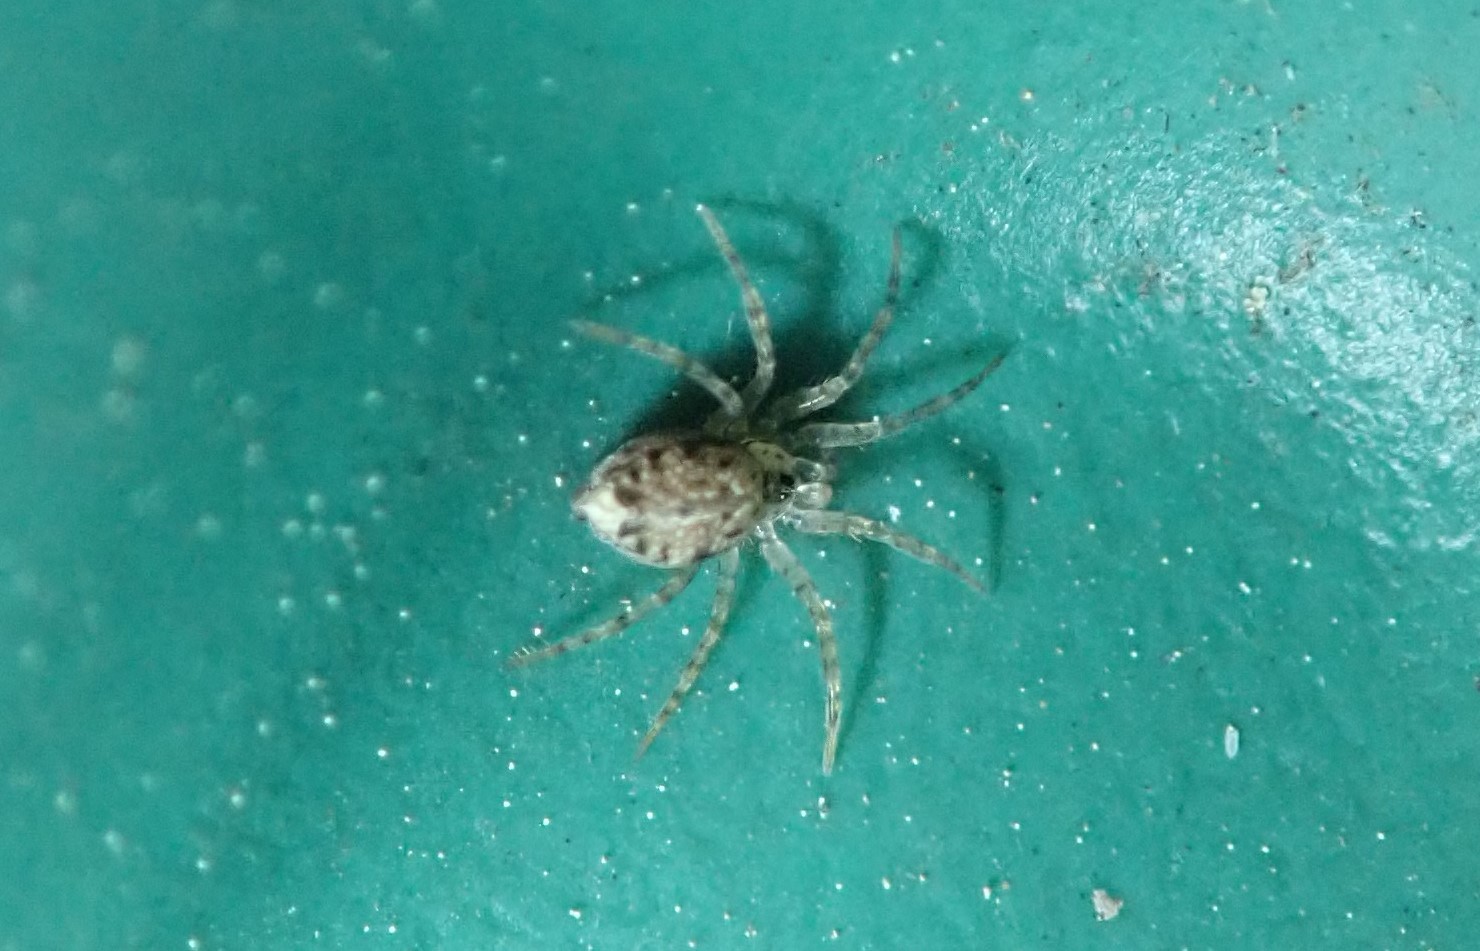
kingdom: Animalia
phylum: Arthropoda
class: Arachnida
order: Araneae
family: Oecobiidae
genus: Oecobius
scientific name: Oecobius navus
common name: Flatmesh weaver
